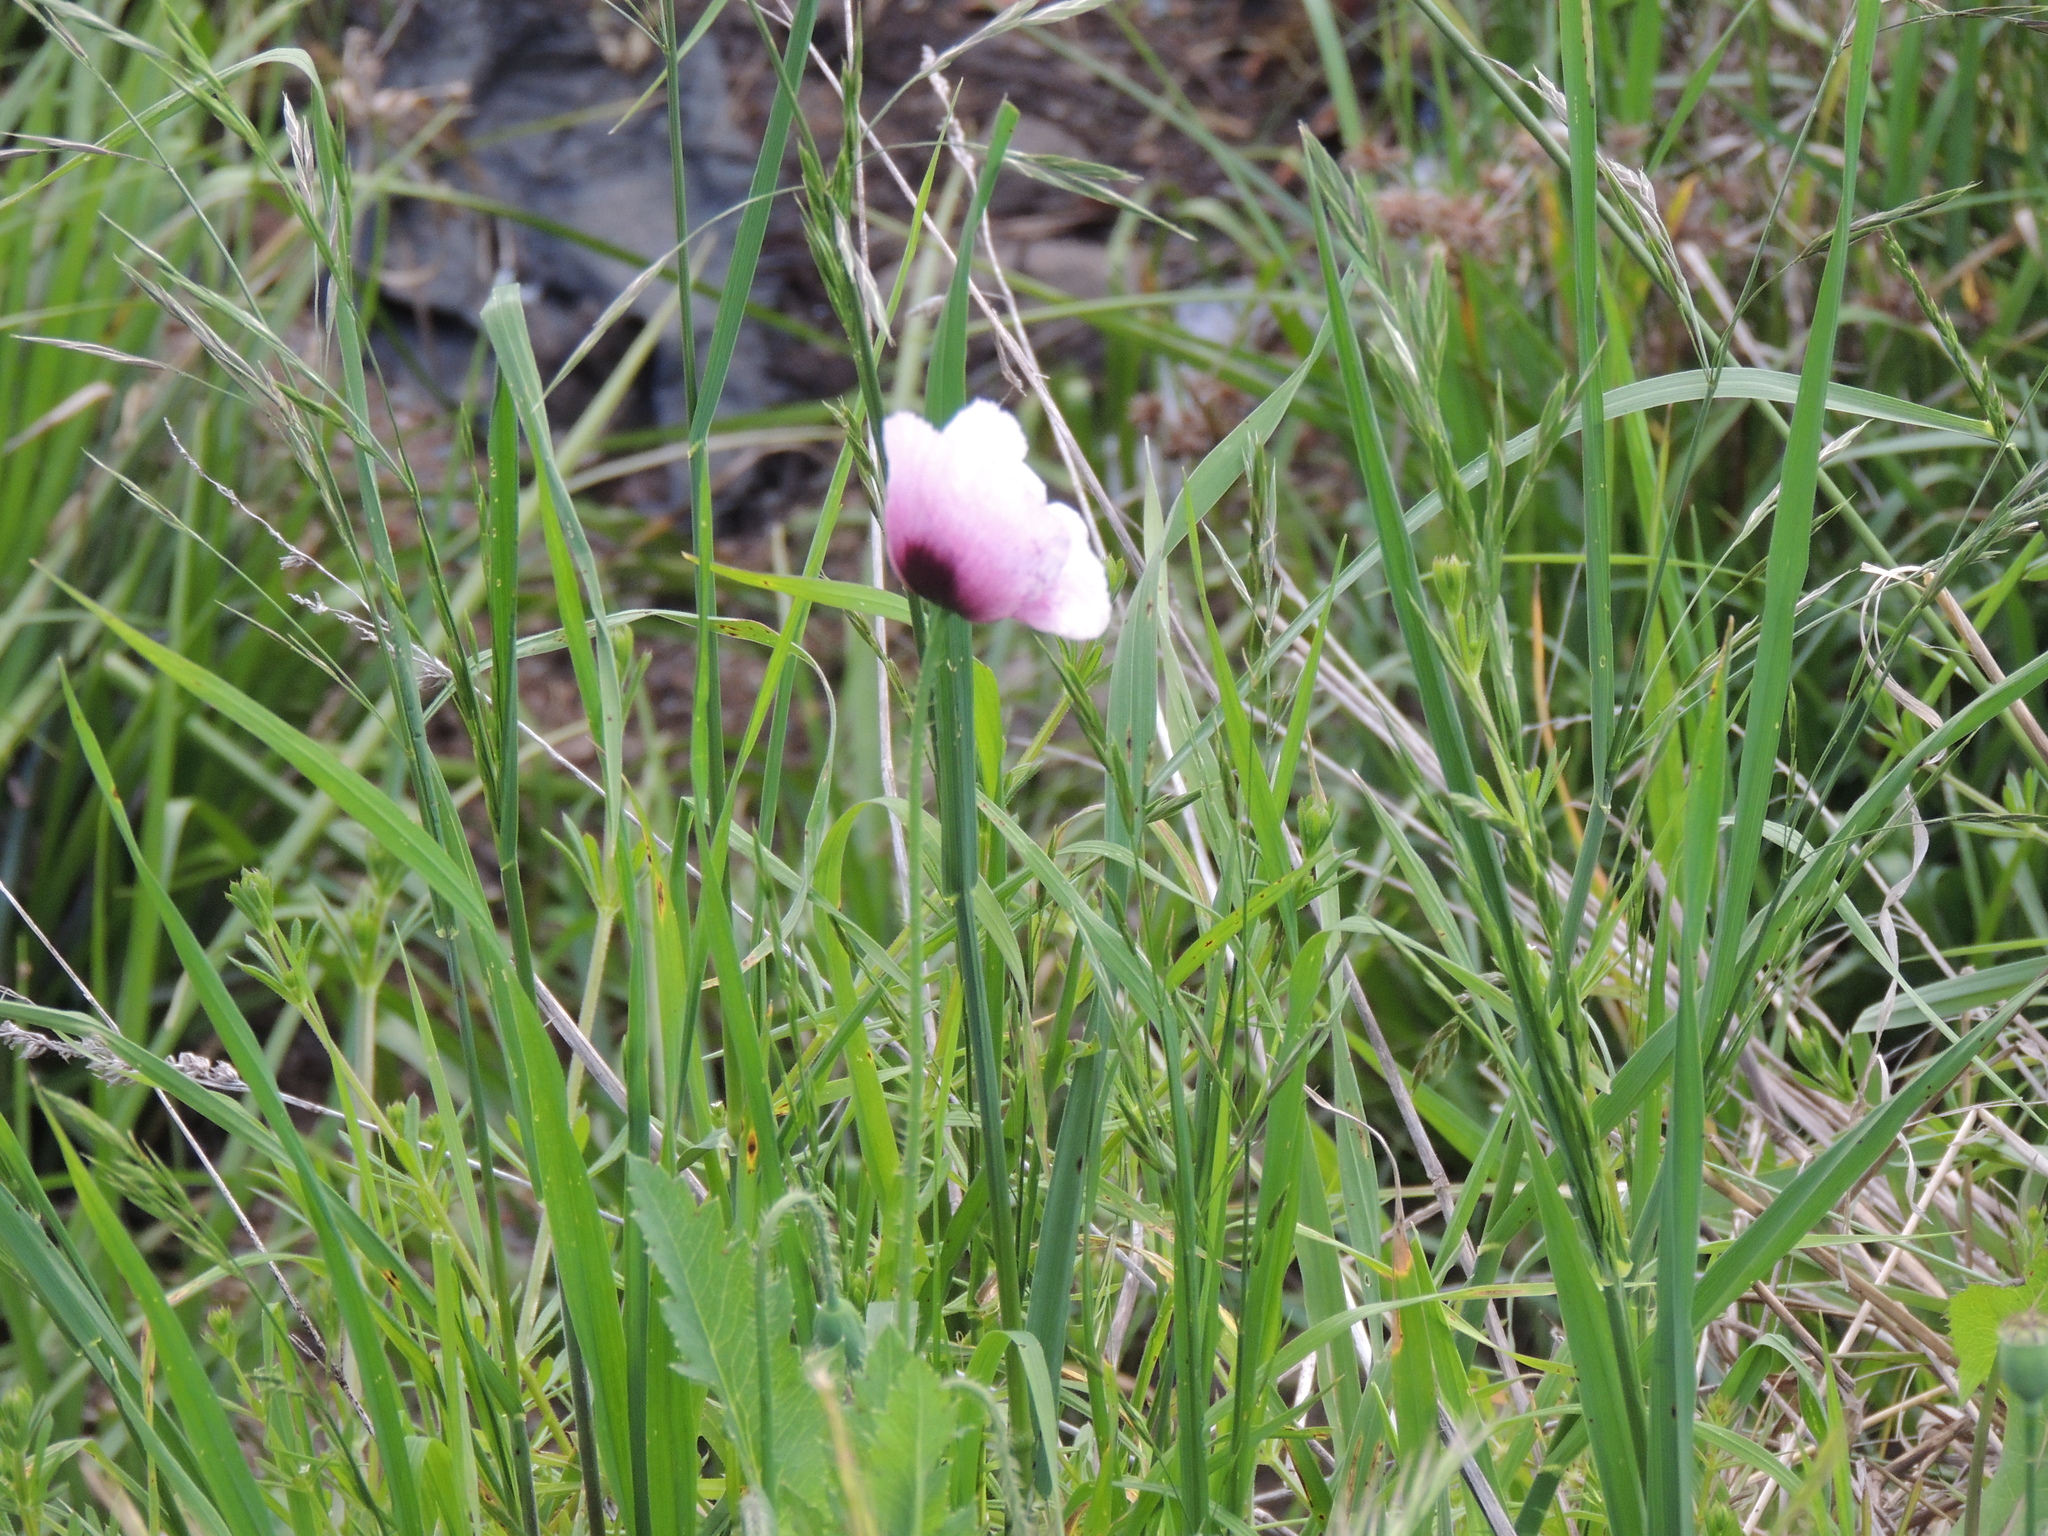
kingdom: Plantae
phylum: Tracheophyta
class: Magnoliopsida
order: Ranunculales
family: Papaveraceae
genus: Papaver
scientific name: Papaver setigerum
